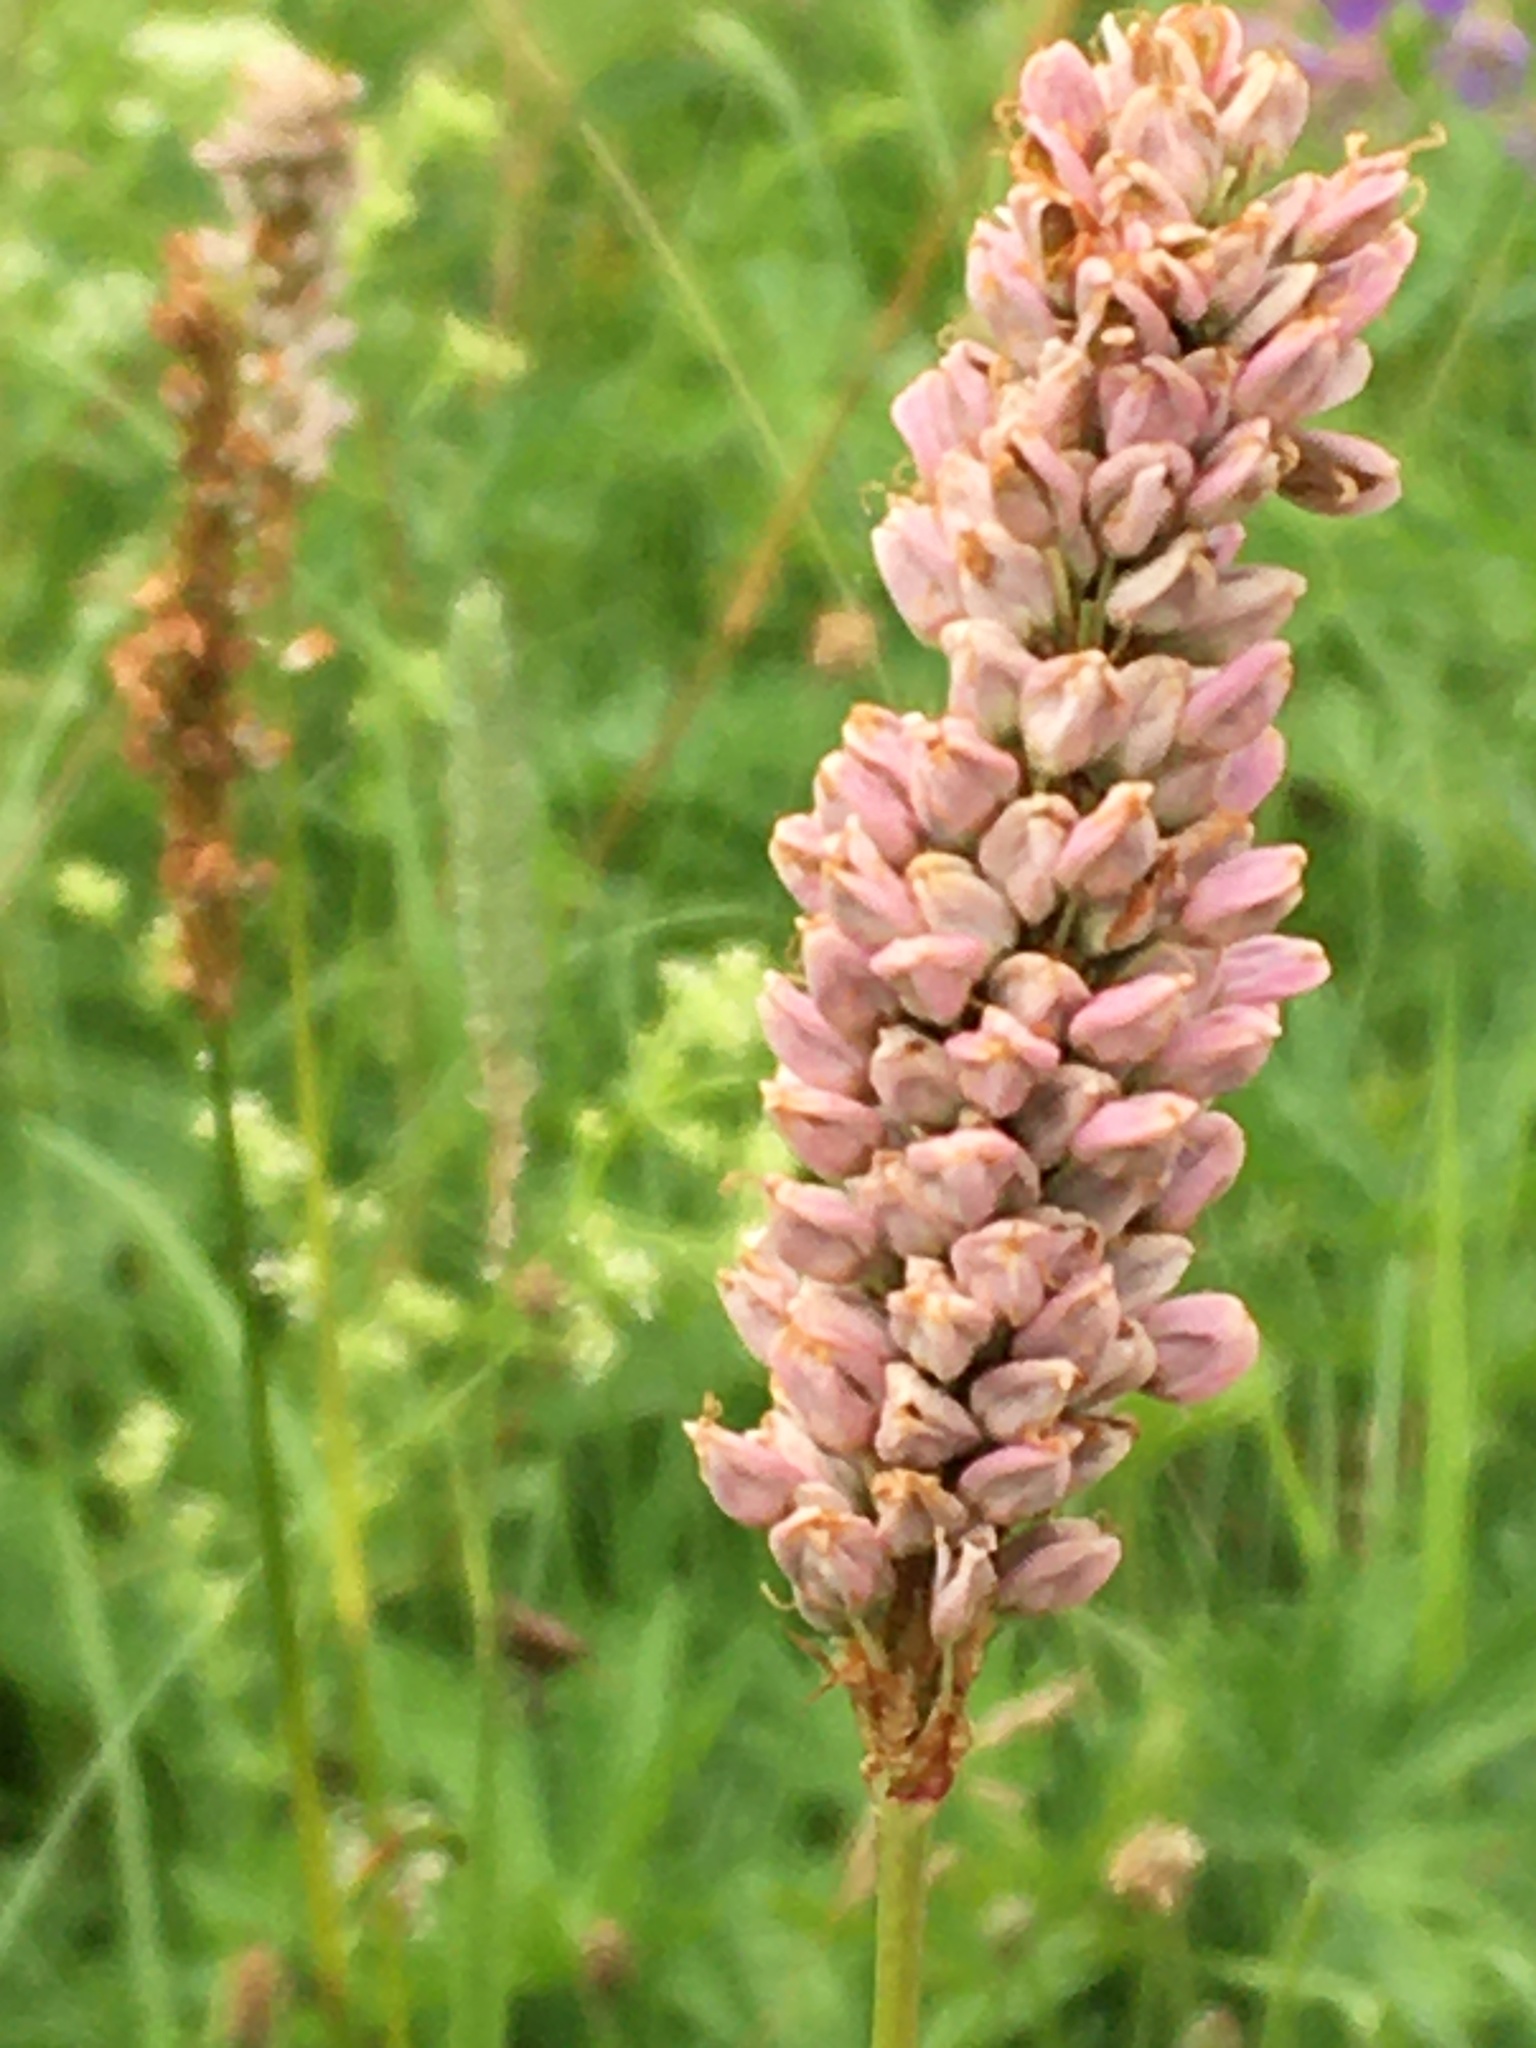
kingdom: Plantae
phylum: Tracheophyta
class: Magnoliopsida
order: Caryophyllales
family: Polygonaceae
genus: Bistorta
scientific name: Bistorta officinalis
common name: Common bistort
